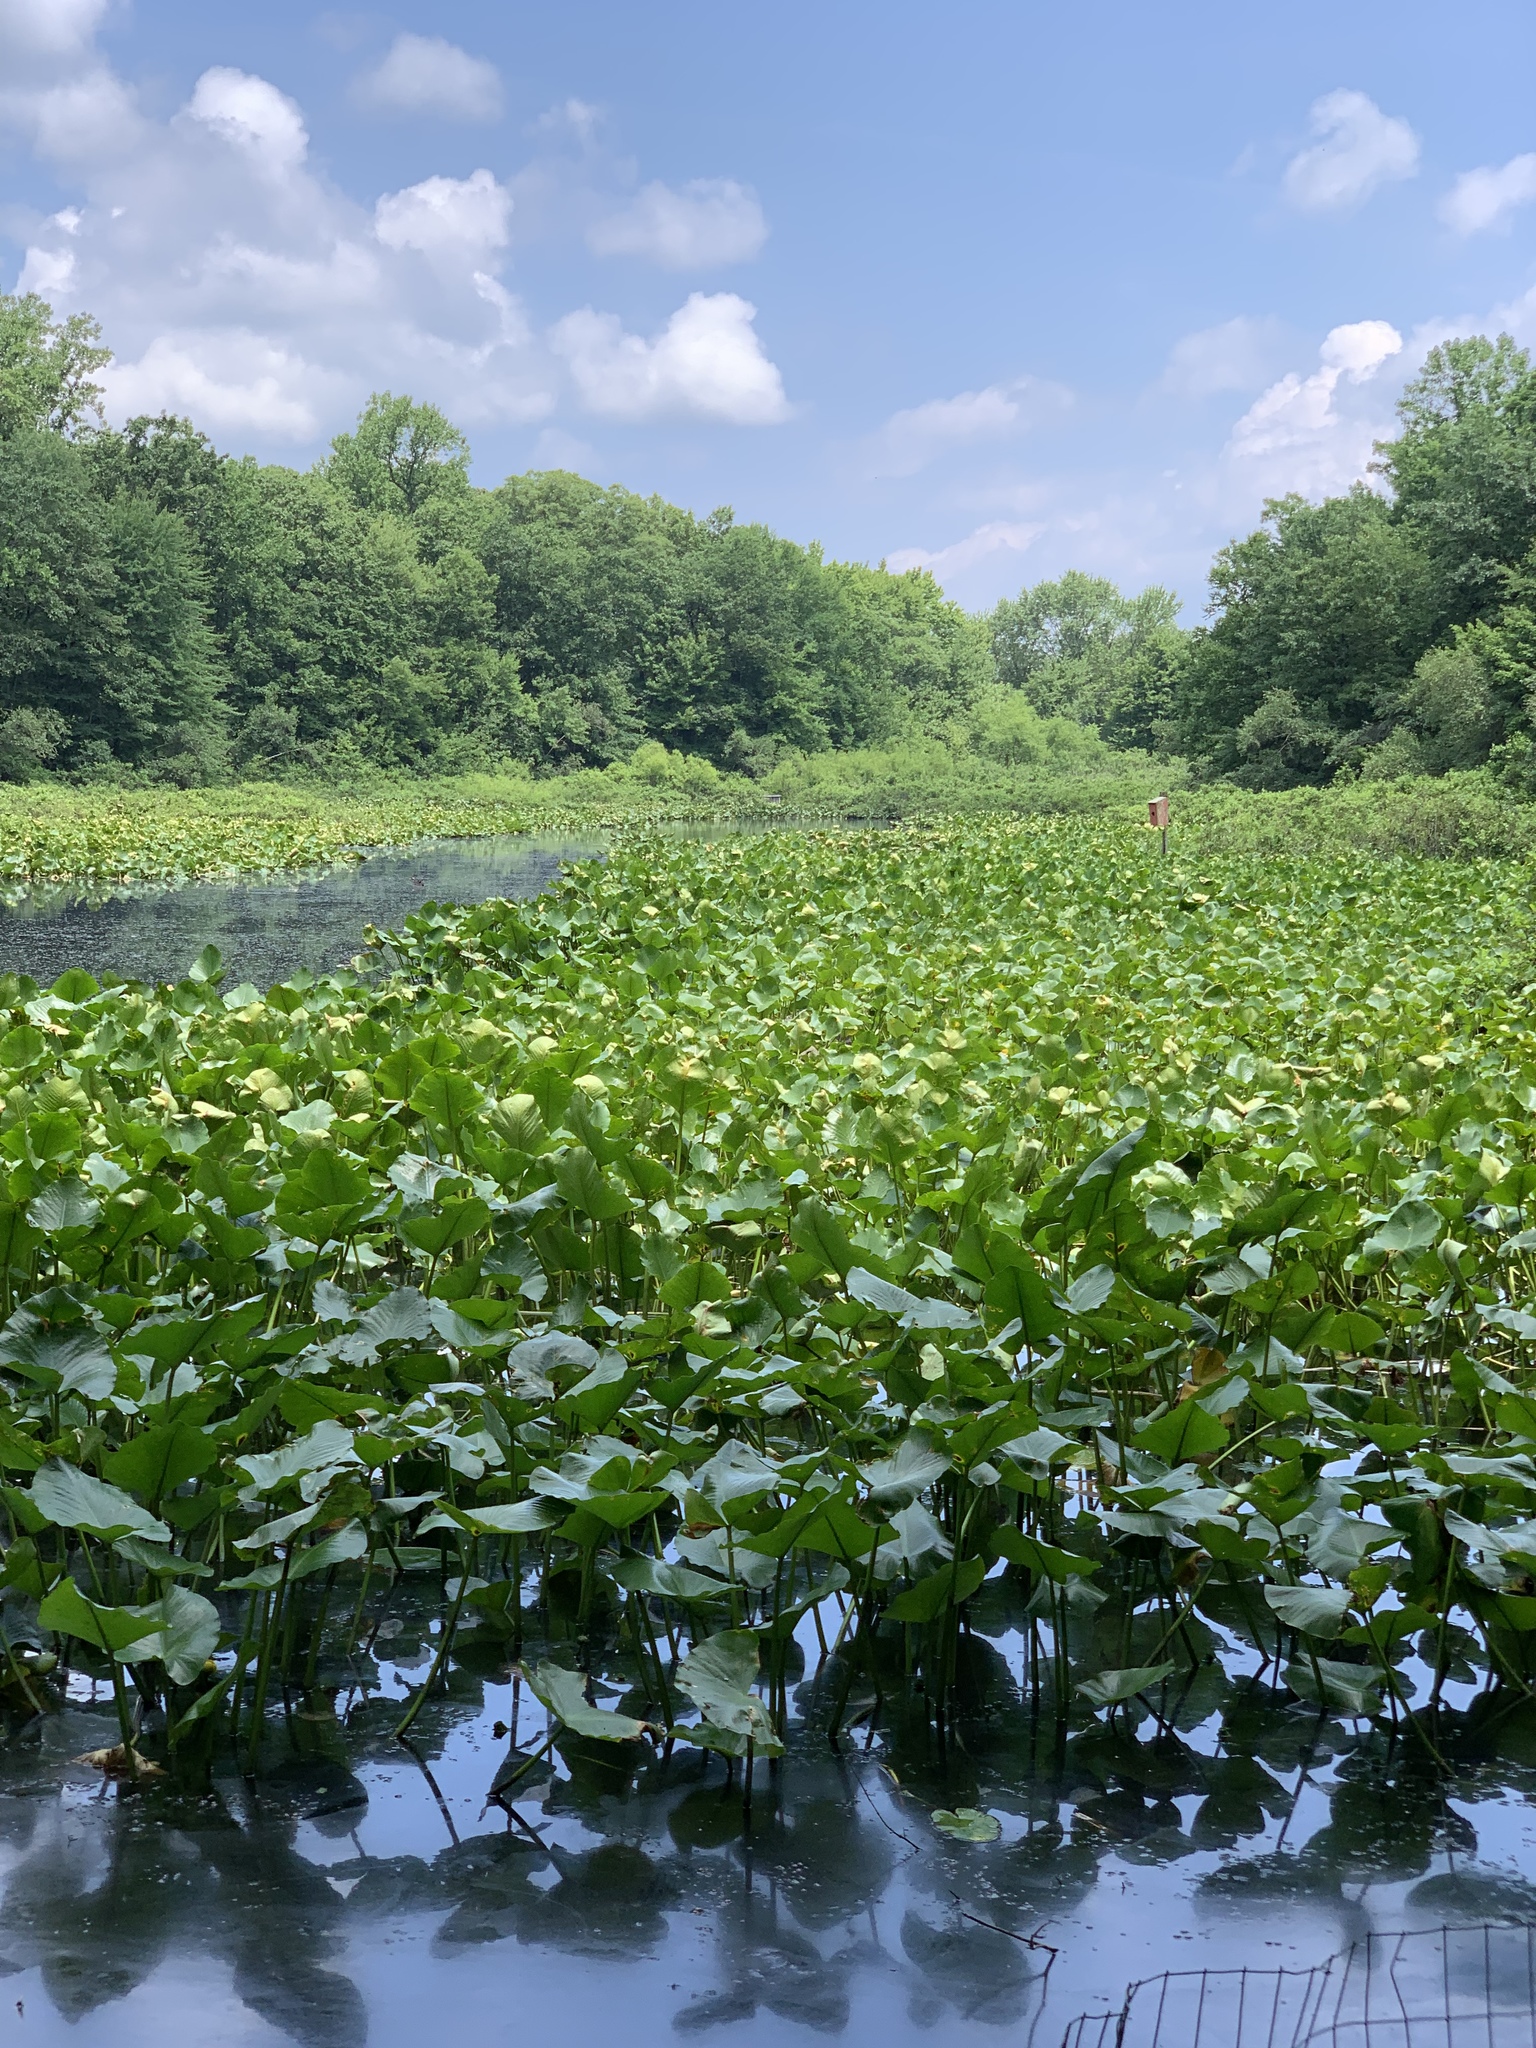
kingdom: Animalia
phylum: Chordata
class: Amphibia
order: Anura
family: Ranidae
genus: Lithobates
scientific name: Lithobates catesbeianus
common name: American bullfrog
